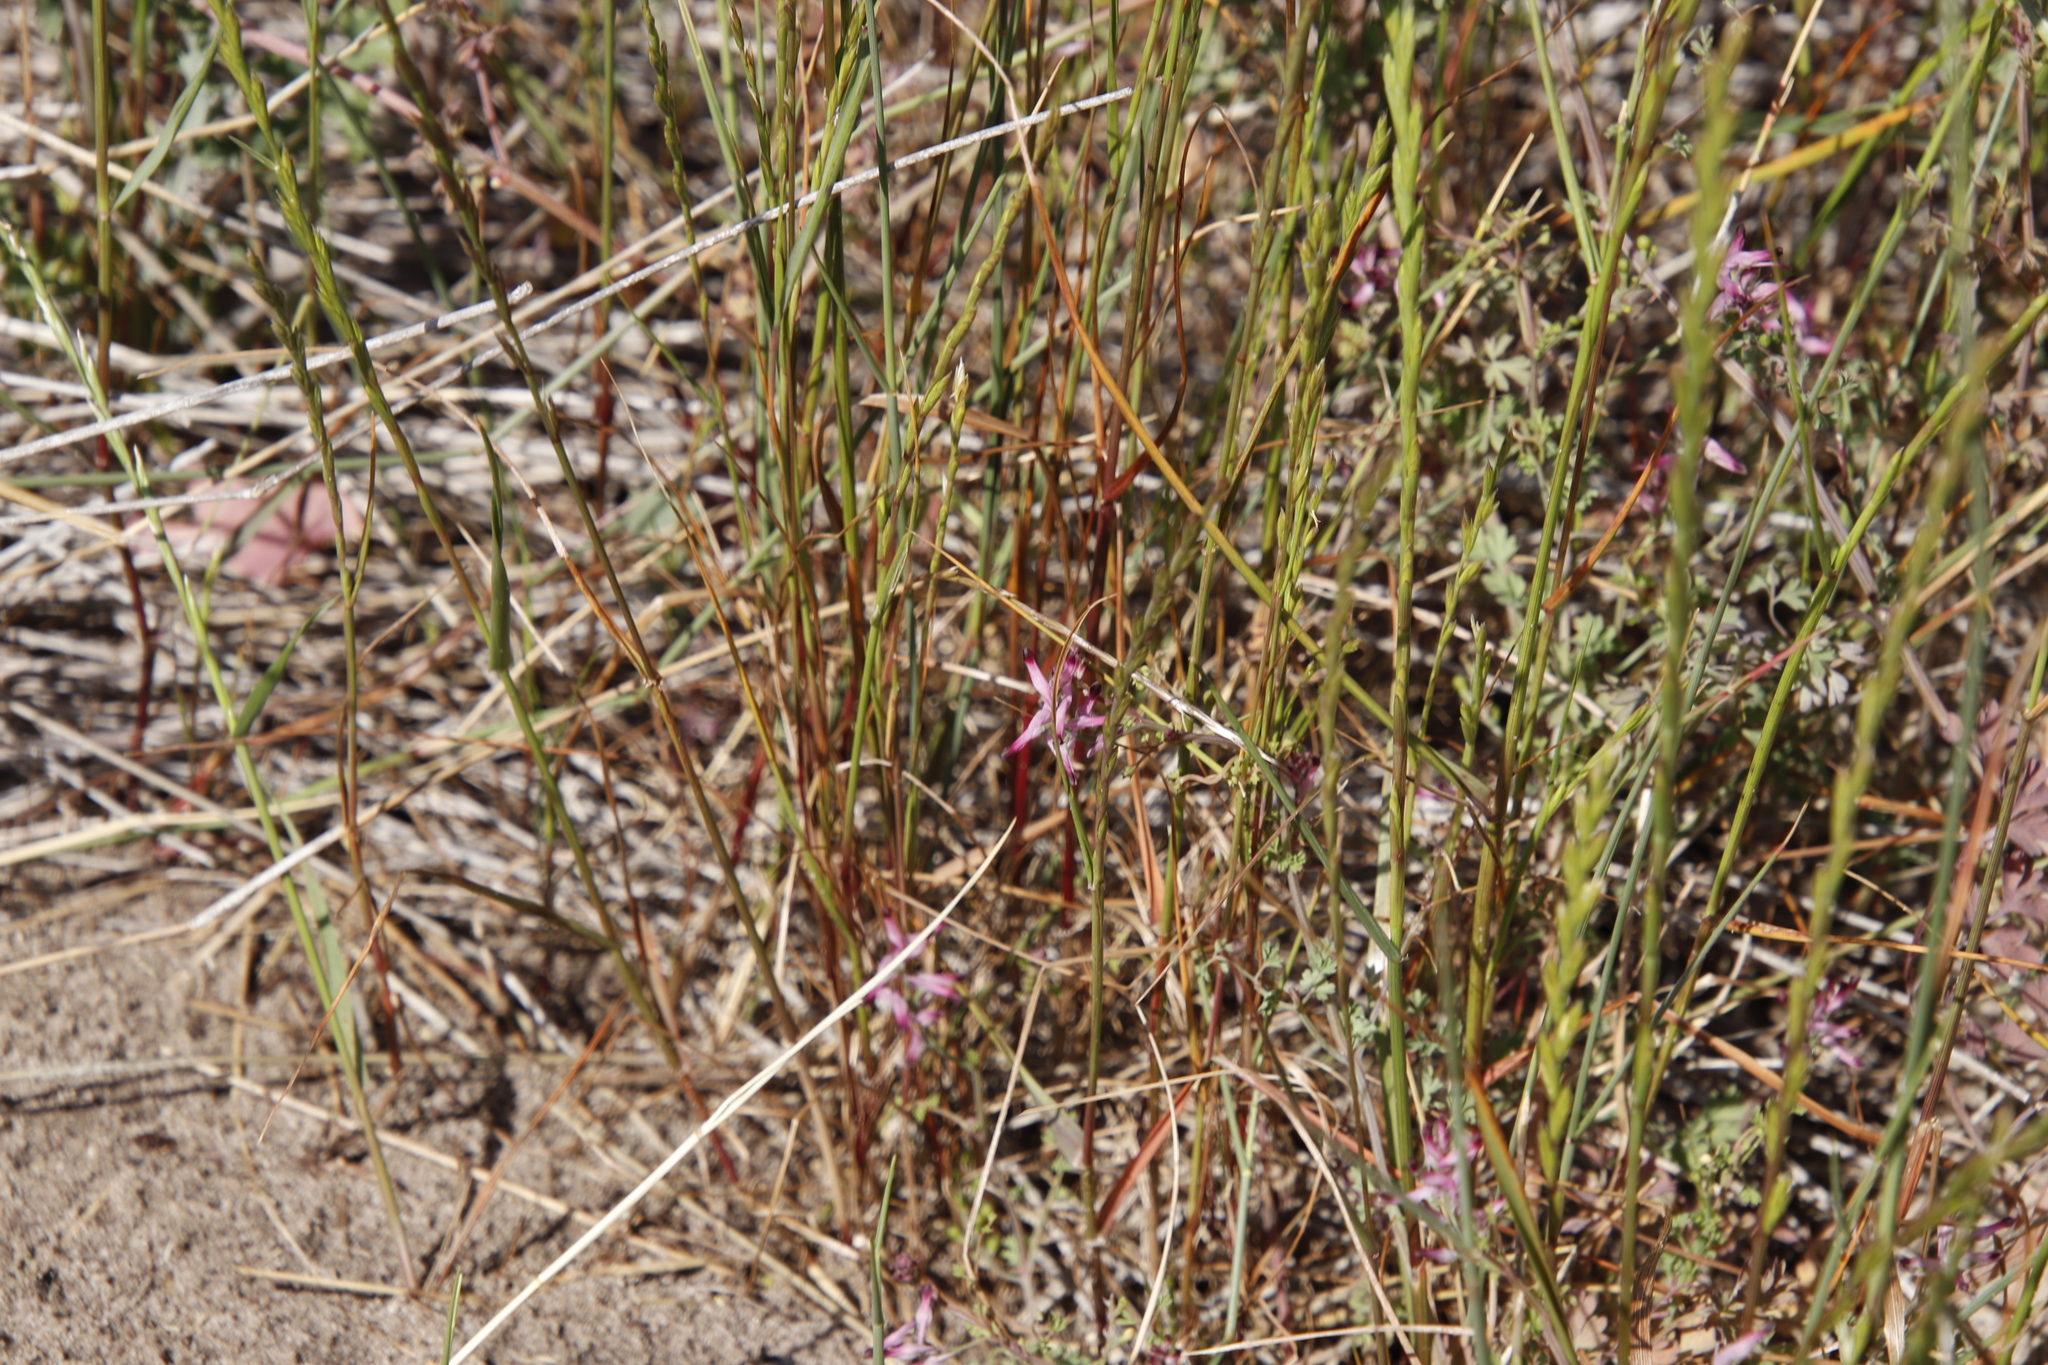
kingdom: Plantae
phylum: Tracheophyta
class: Magnoliopsida
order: Ranunculales
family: Papaveraceae
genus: Fumaria
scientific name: Fumaria muralis
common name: Common ramping-fumitory
